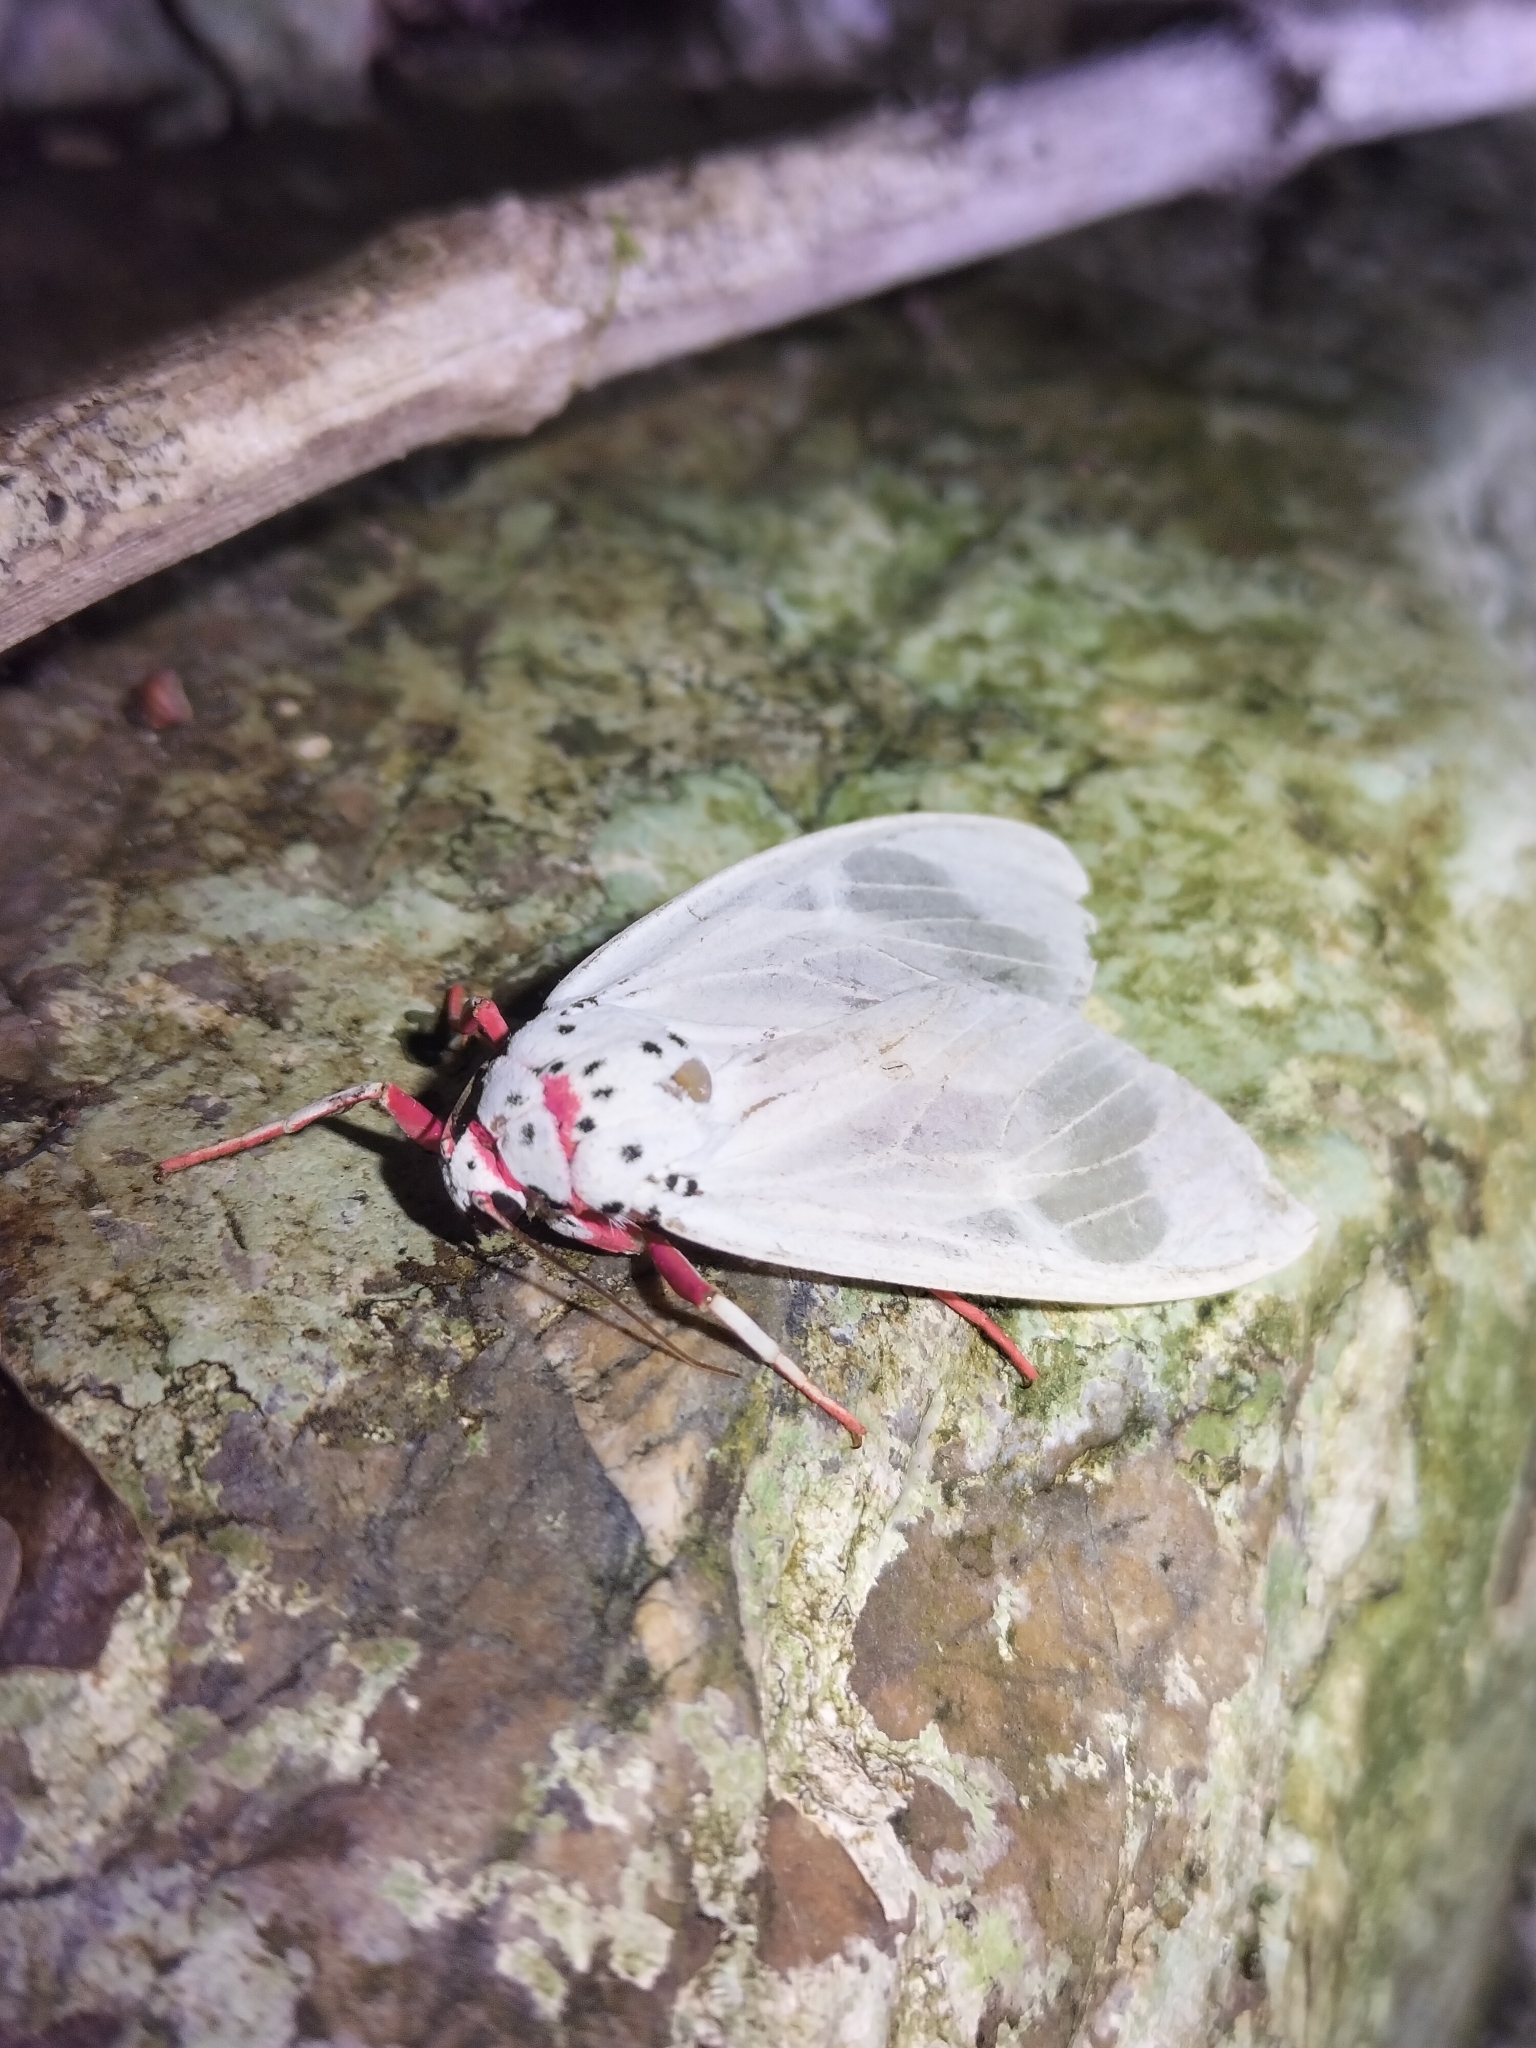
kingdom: Animalia
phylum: Arthropoda
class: Insecta
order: Lepidoptera
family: Erebidae
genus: Amerila
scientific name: Amerila rubripes
